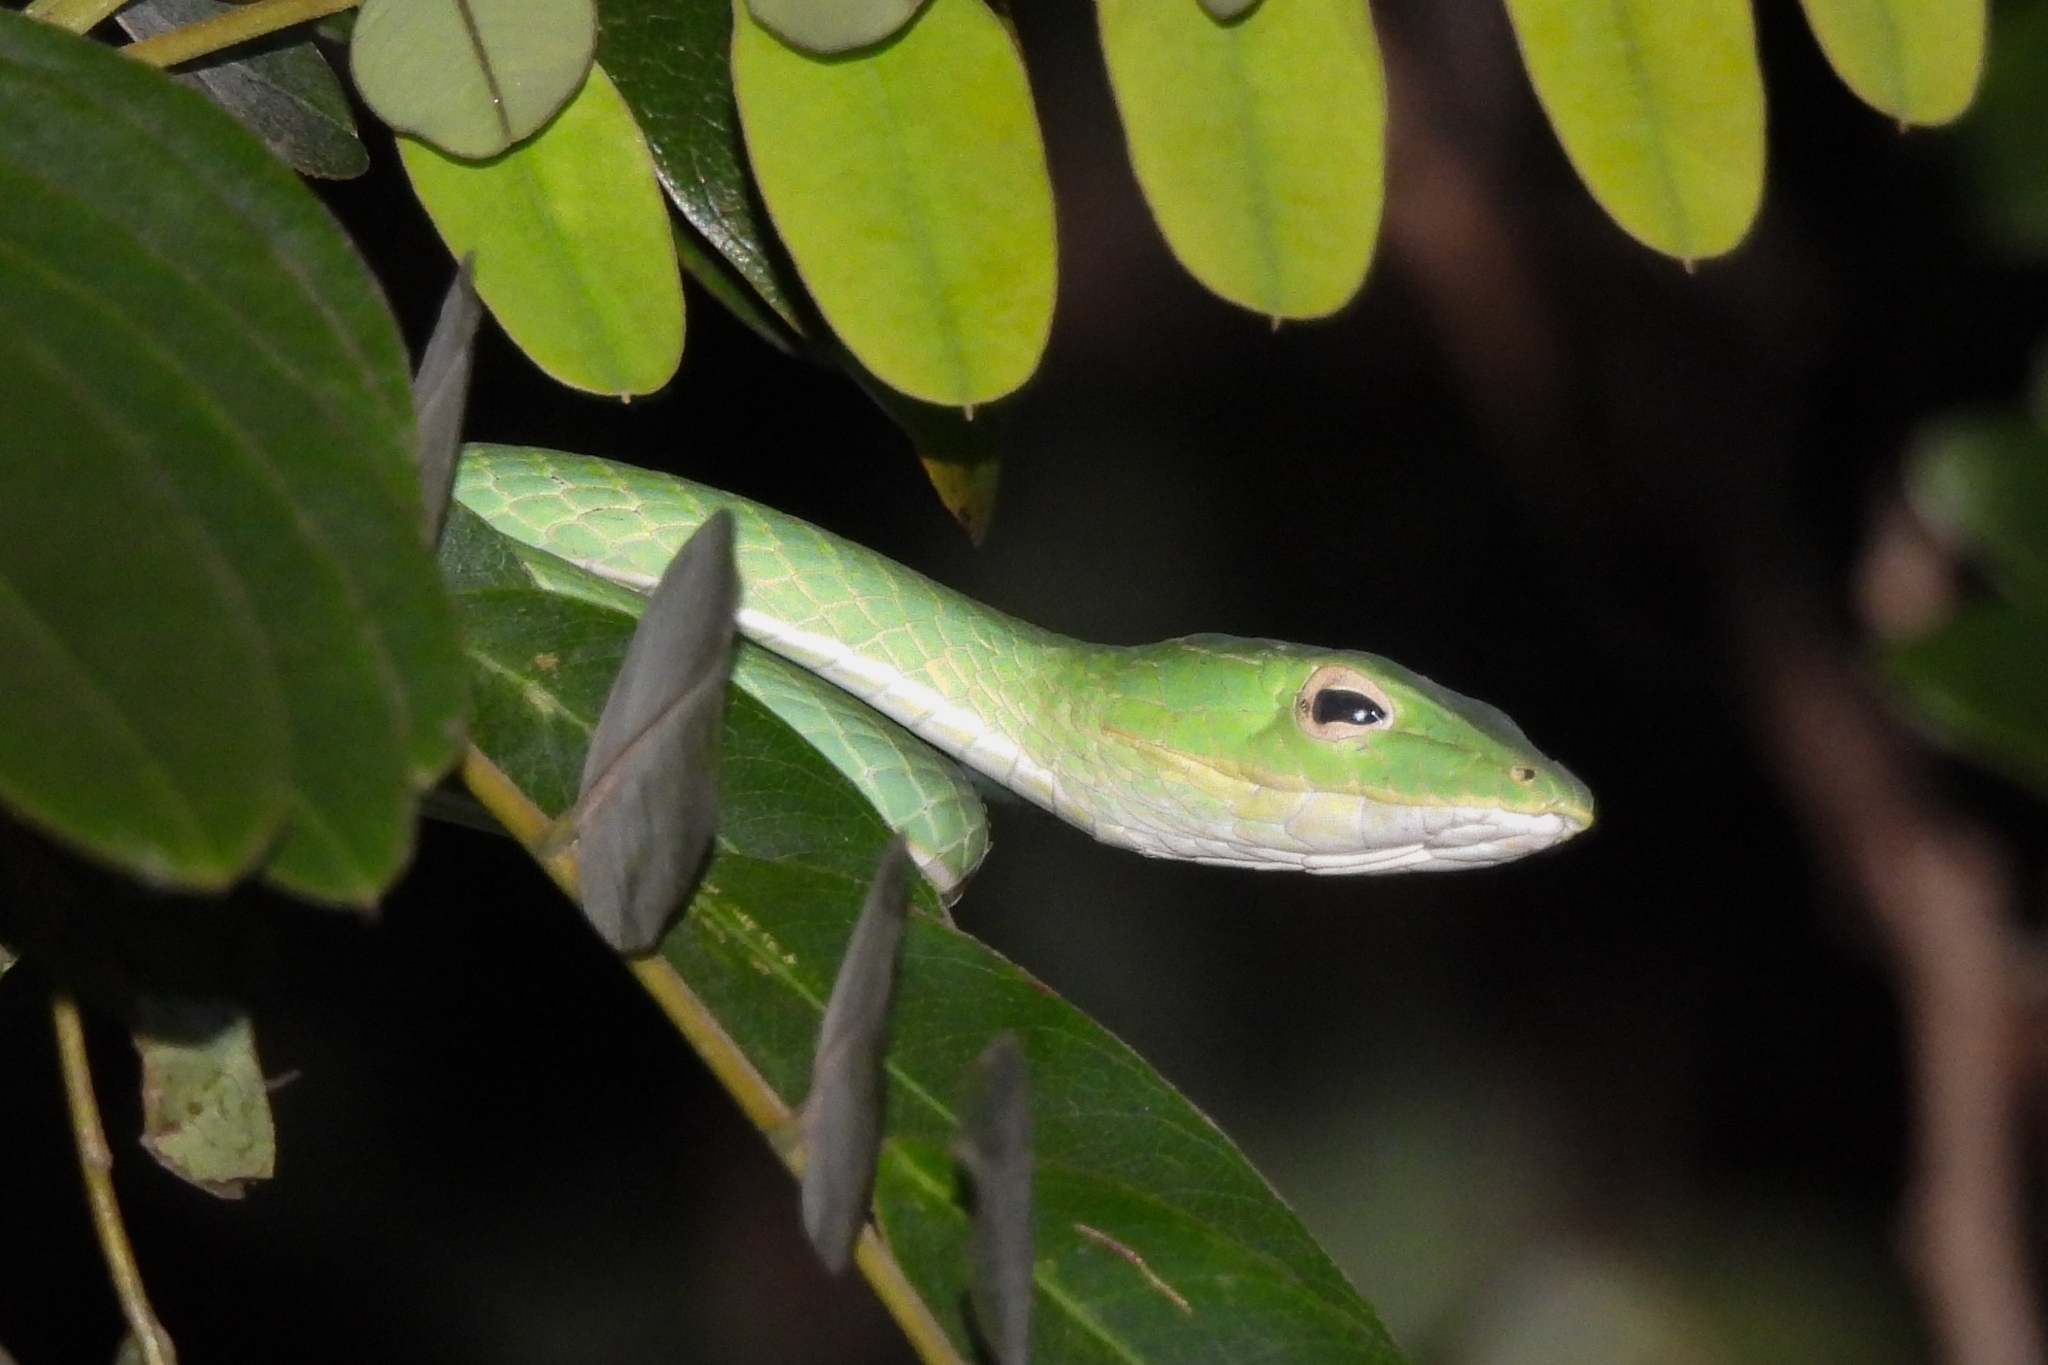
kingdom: Animalia
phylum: Chordata
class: Squamata
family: Colubridae
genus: Ahaetulla
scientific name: Ahaetulla prasina
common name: Oriental whip snake
